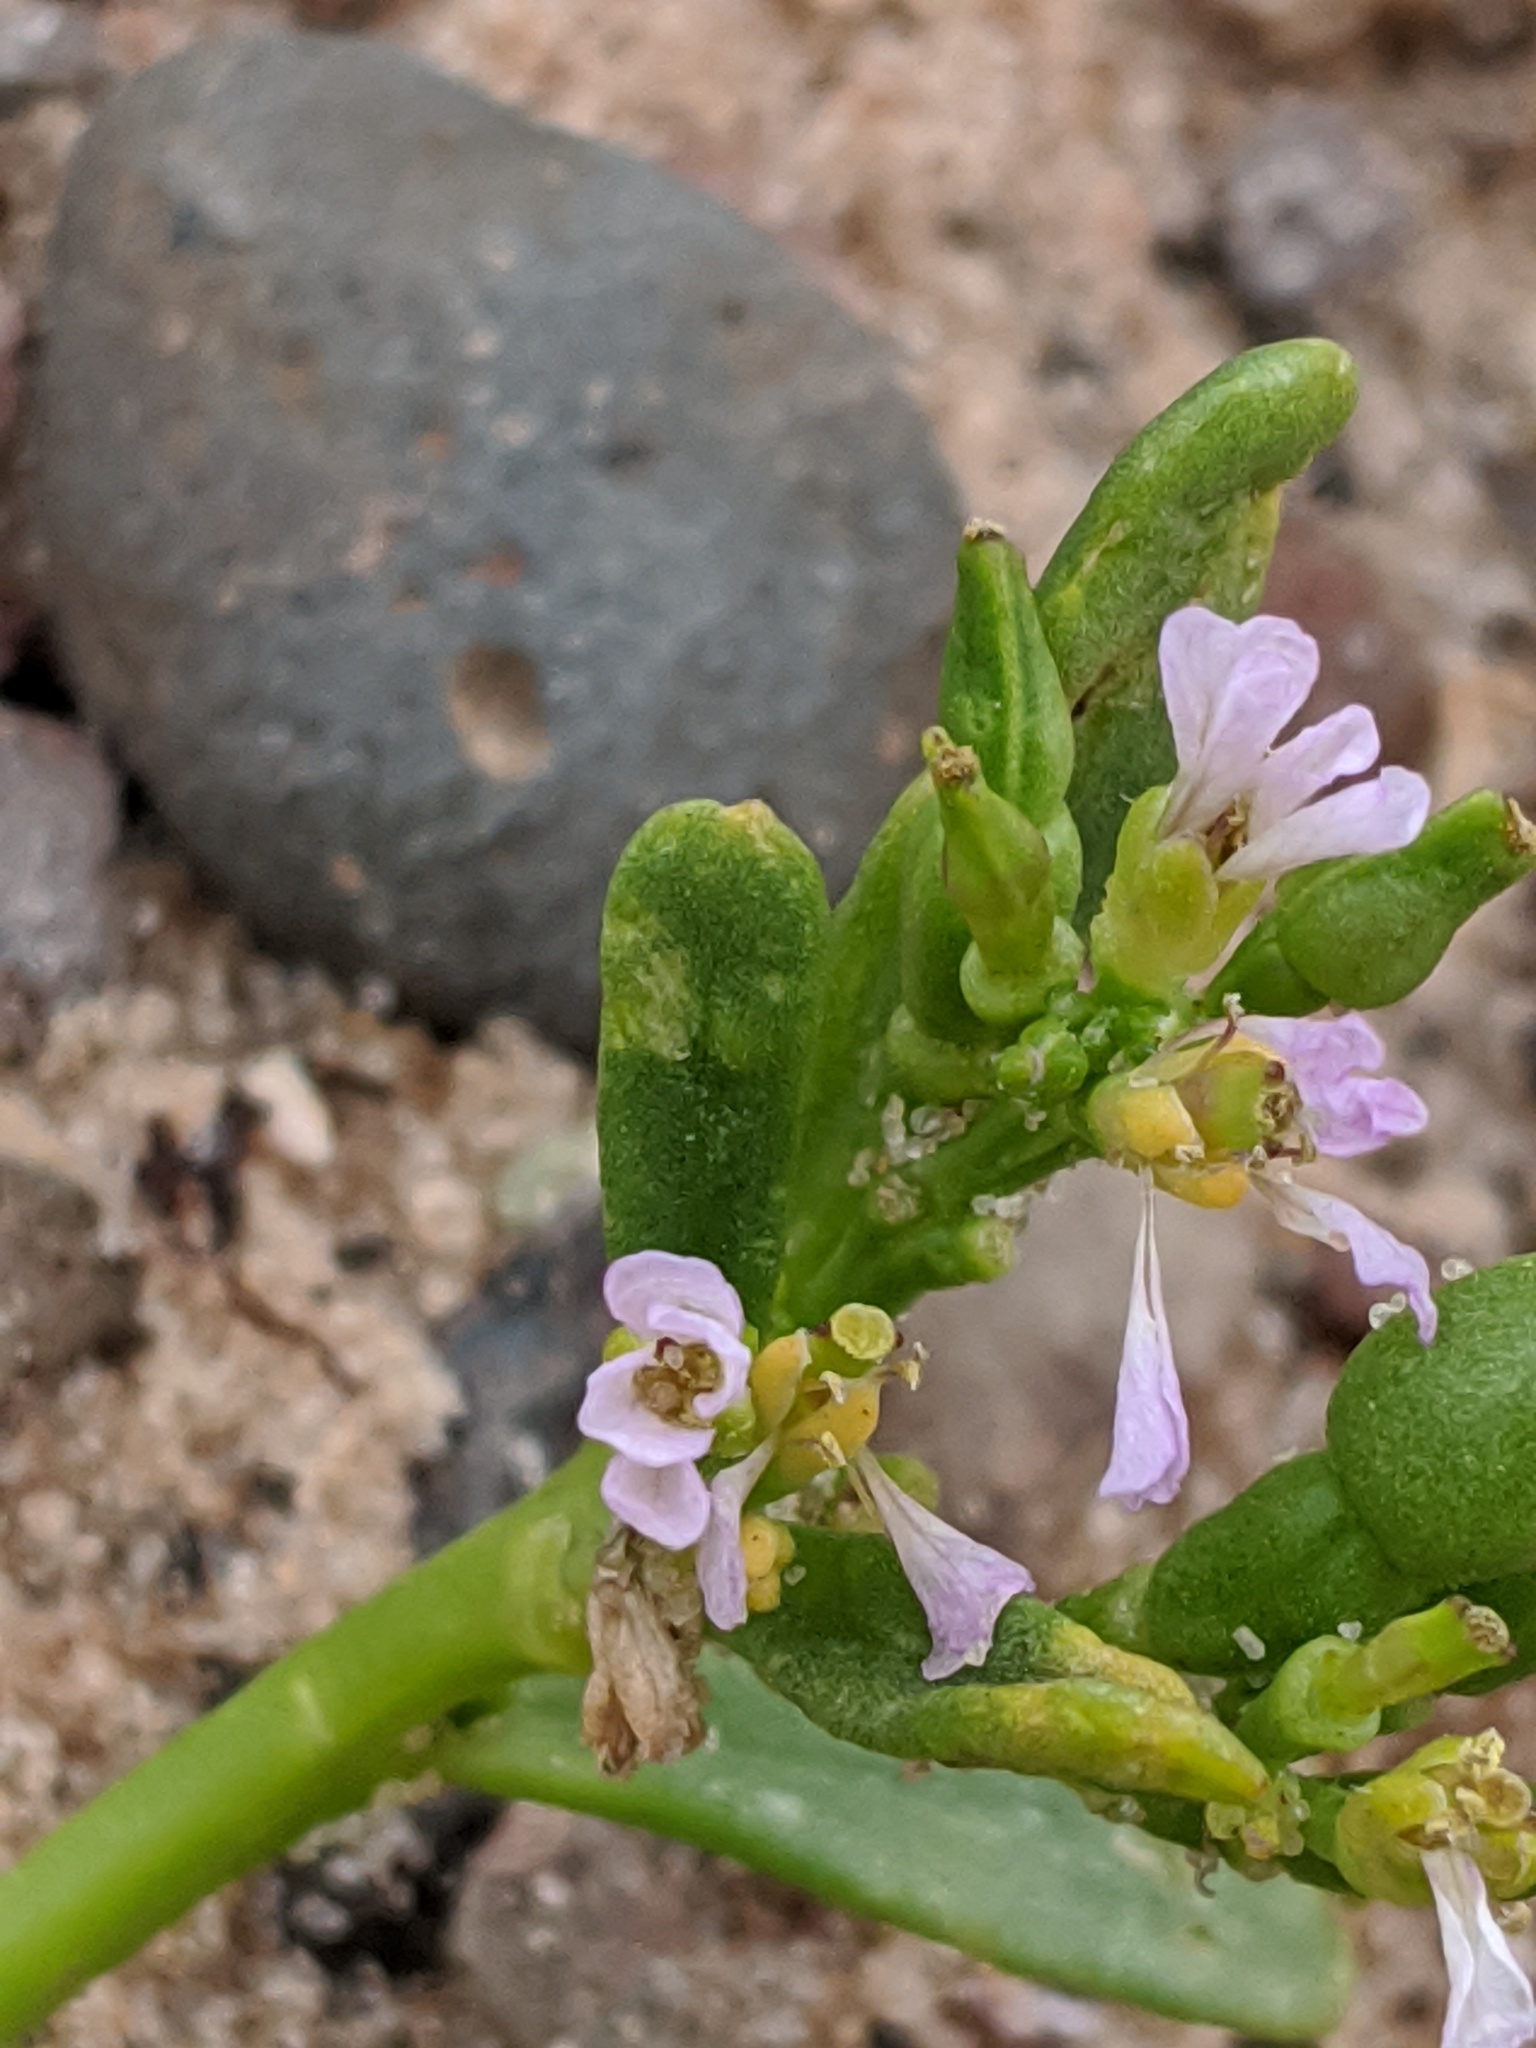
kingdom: Plantae
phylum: Tracheophyta
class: Magnoliopsida
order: Brassicales
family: Brassicaceae
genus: Cakile
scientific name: Cakile edentula
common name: American sea rocket
